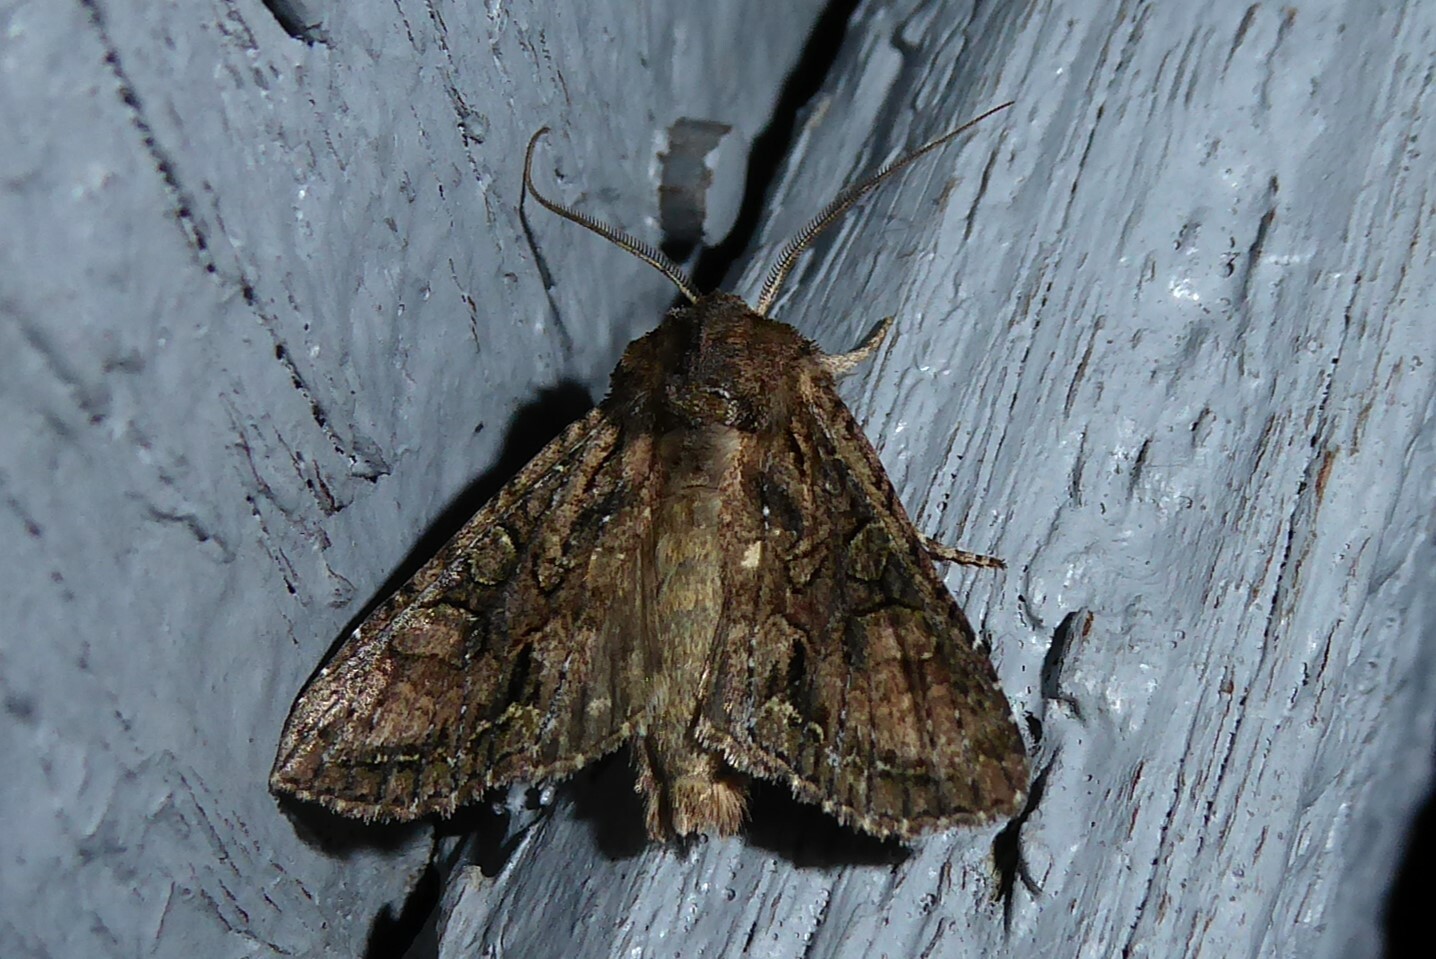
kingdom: Animalia
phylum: Arthropoda
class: Insecta
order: Lepidoptera
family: Noctuidae
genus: Ichneutica
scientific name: Ichneutica mutans
